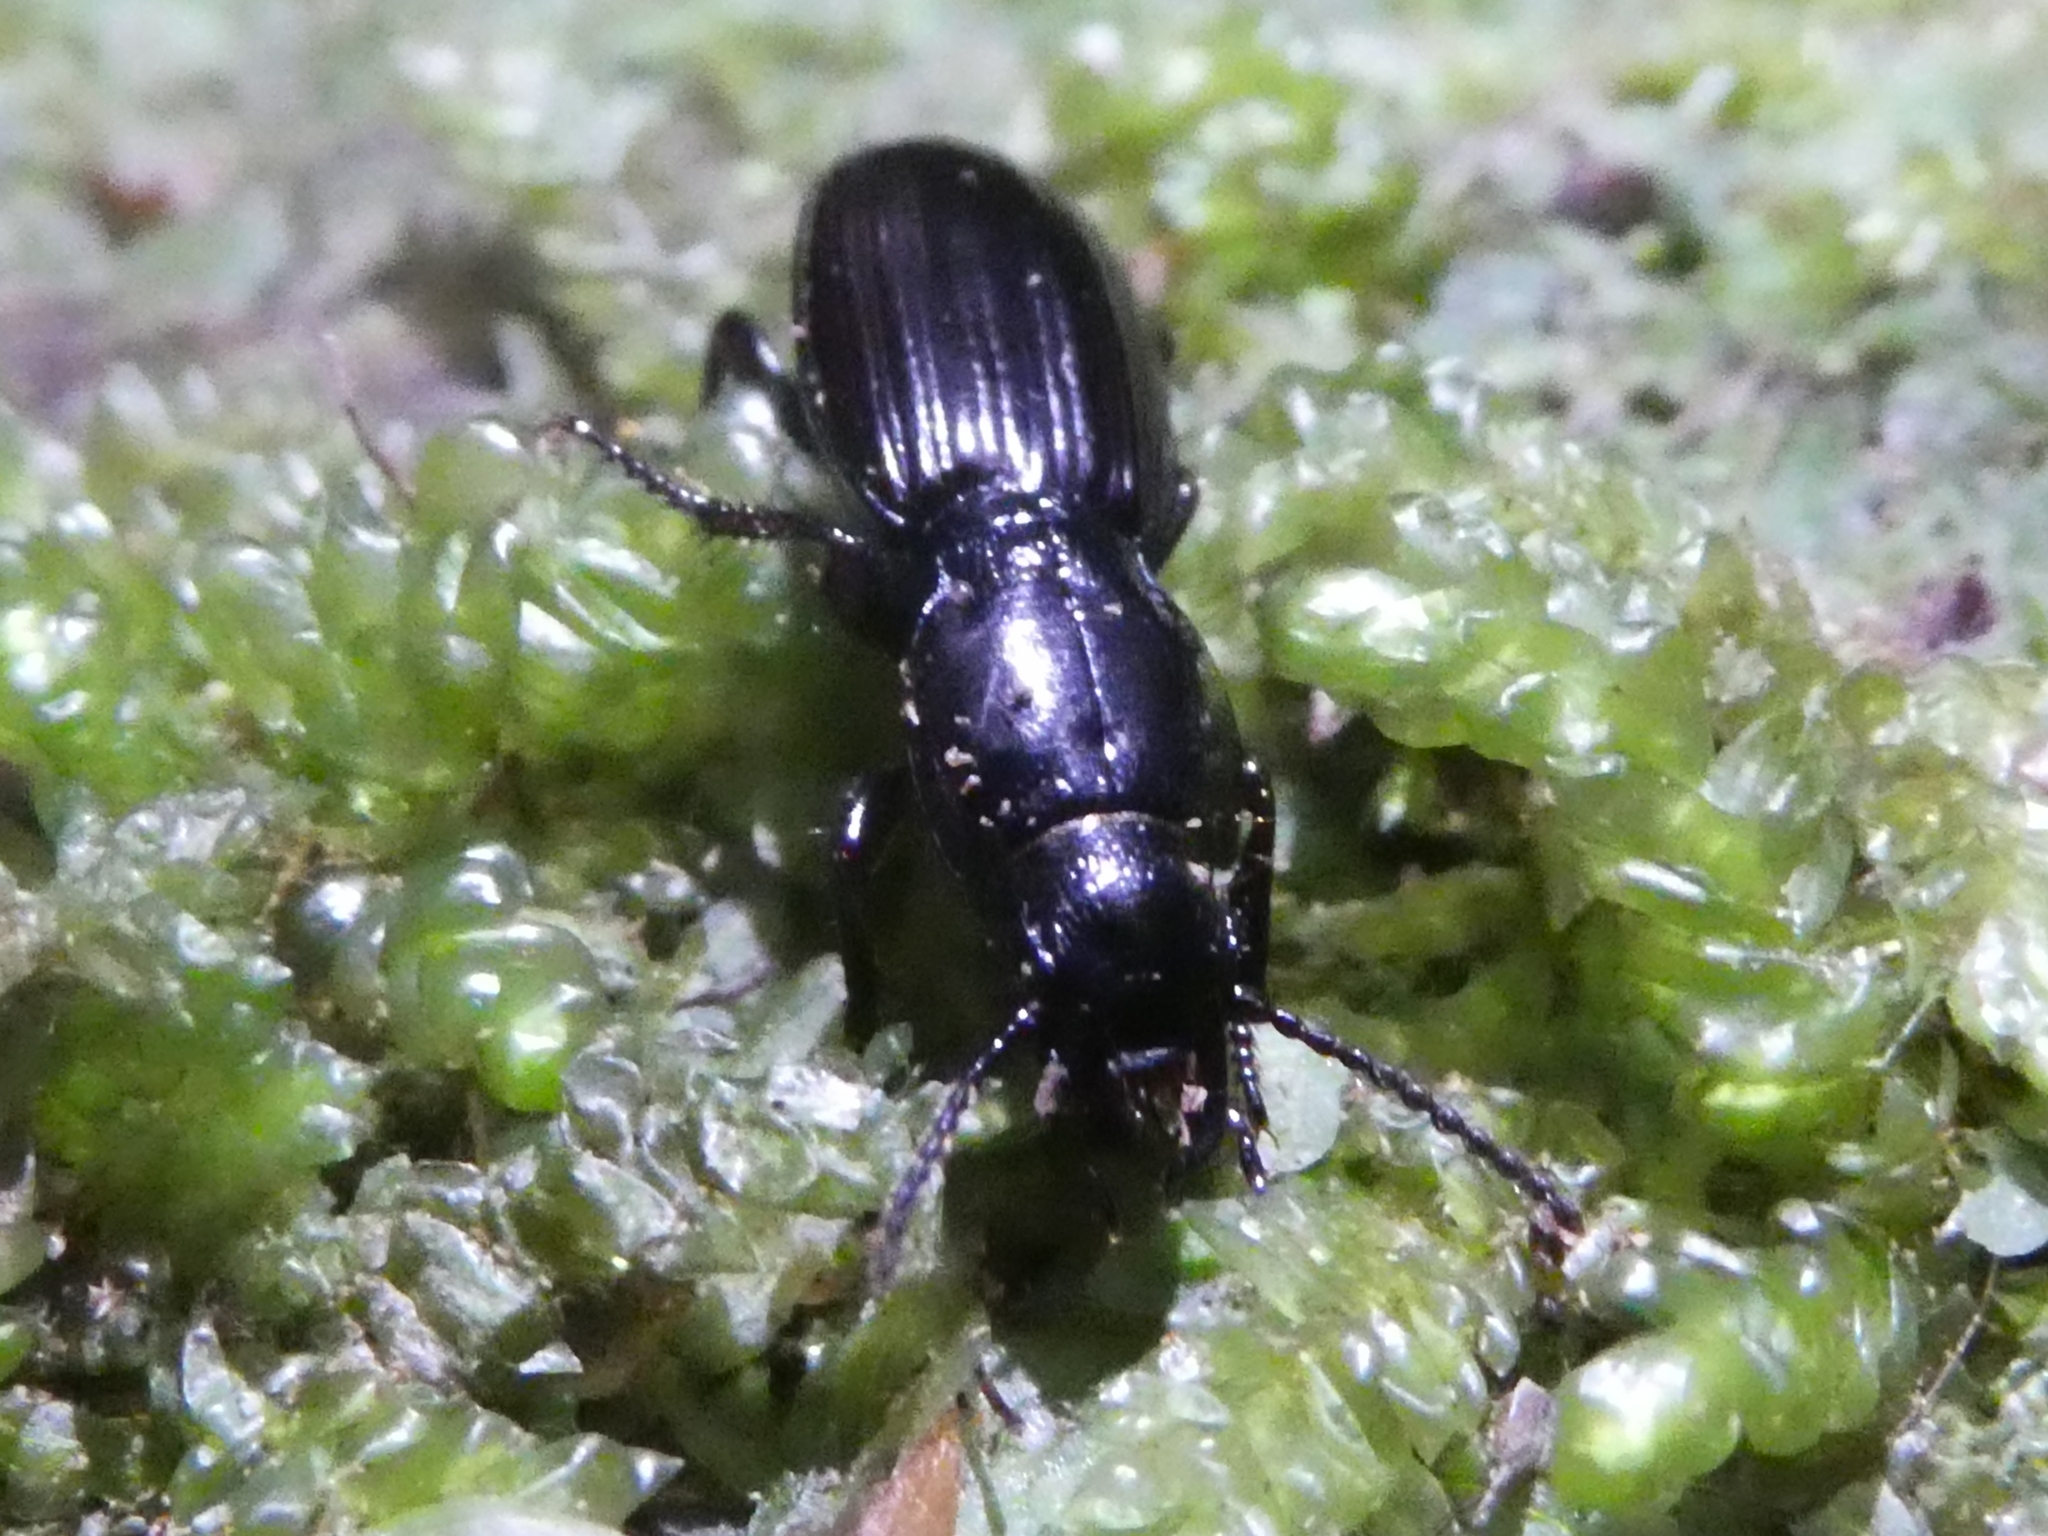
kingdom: Animalia
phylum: Arthropoda
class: Insecta
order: Coleoptera
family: Carabidae
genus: Mecodema
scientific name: Mecodema infimate
